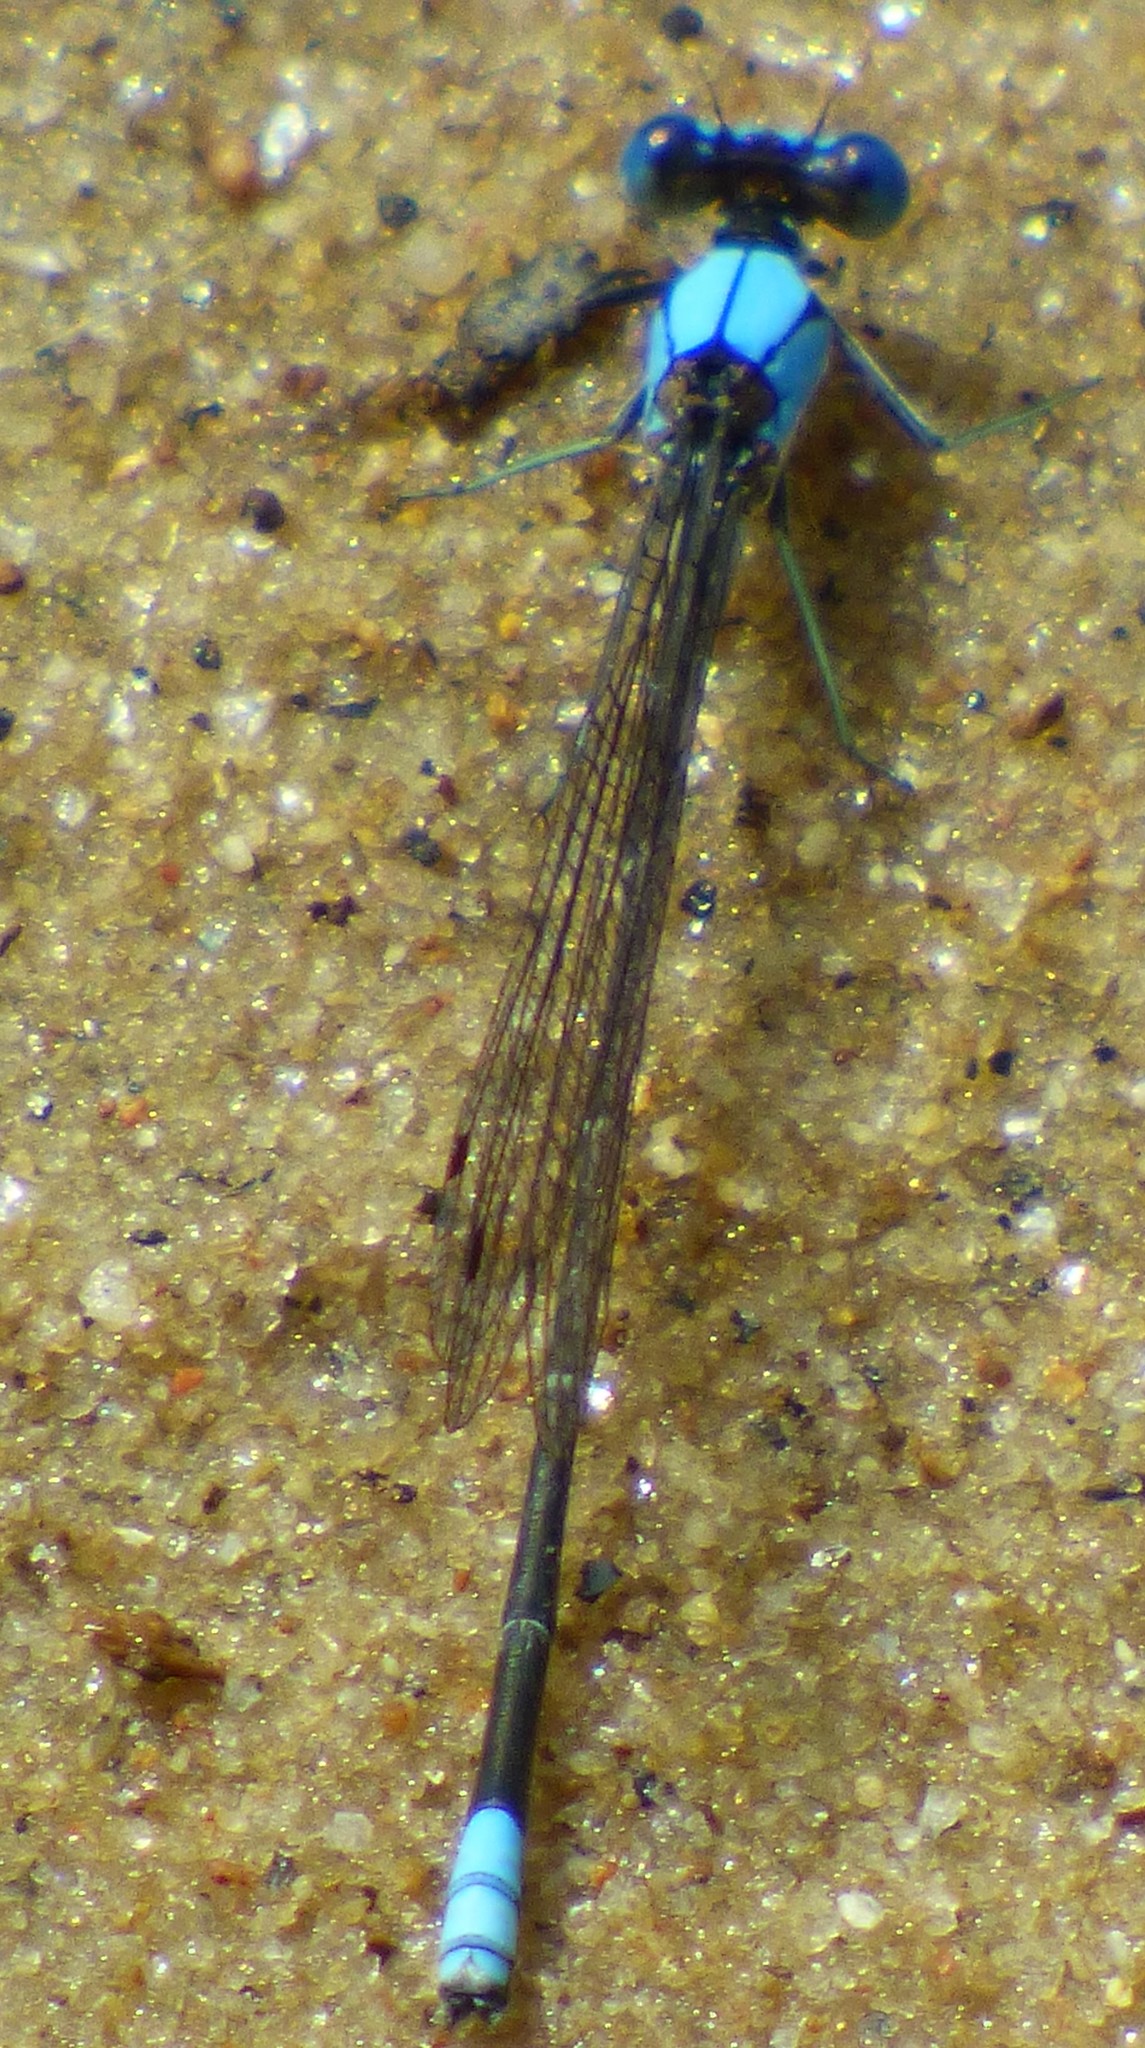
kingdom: Animalia
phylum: Arthropoda
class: Insecta
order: Odonata
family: Coenagrionidae
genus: Argia
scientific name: Argia apicalis
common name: Blue-fronted dancer
